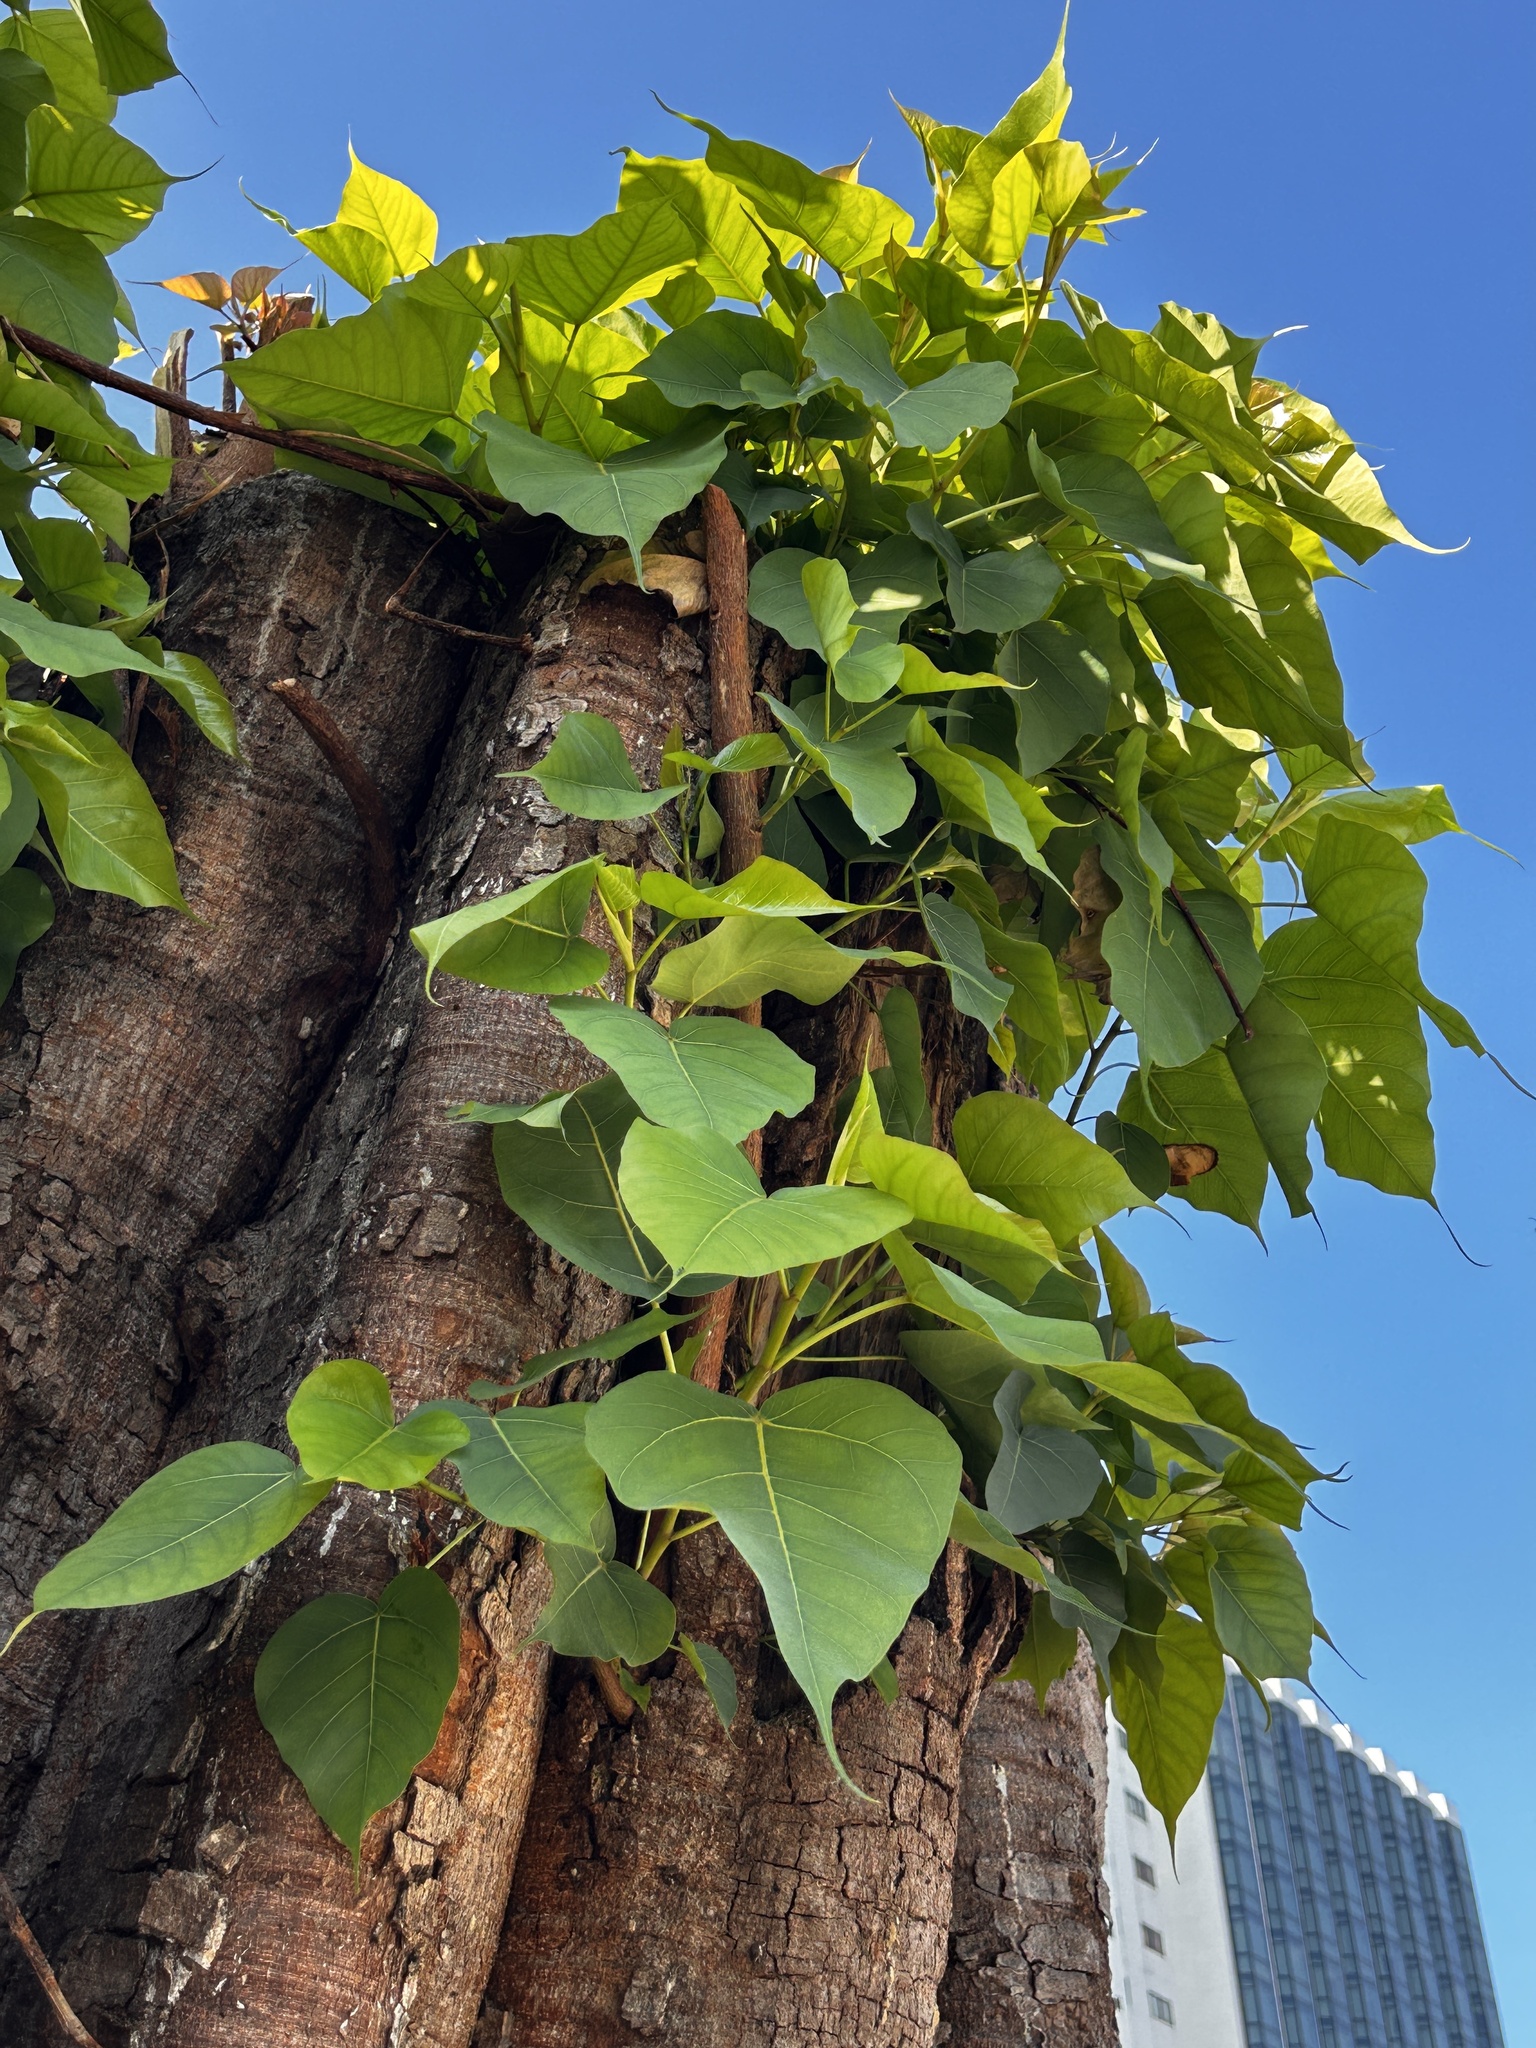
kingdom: Plantae
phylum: Tracheophyta
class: Magnoliopsida
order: Rosales
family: Moraceae
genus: Ficus
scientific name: Ficus religiosa
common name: Bodhi tree
